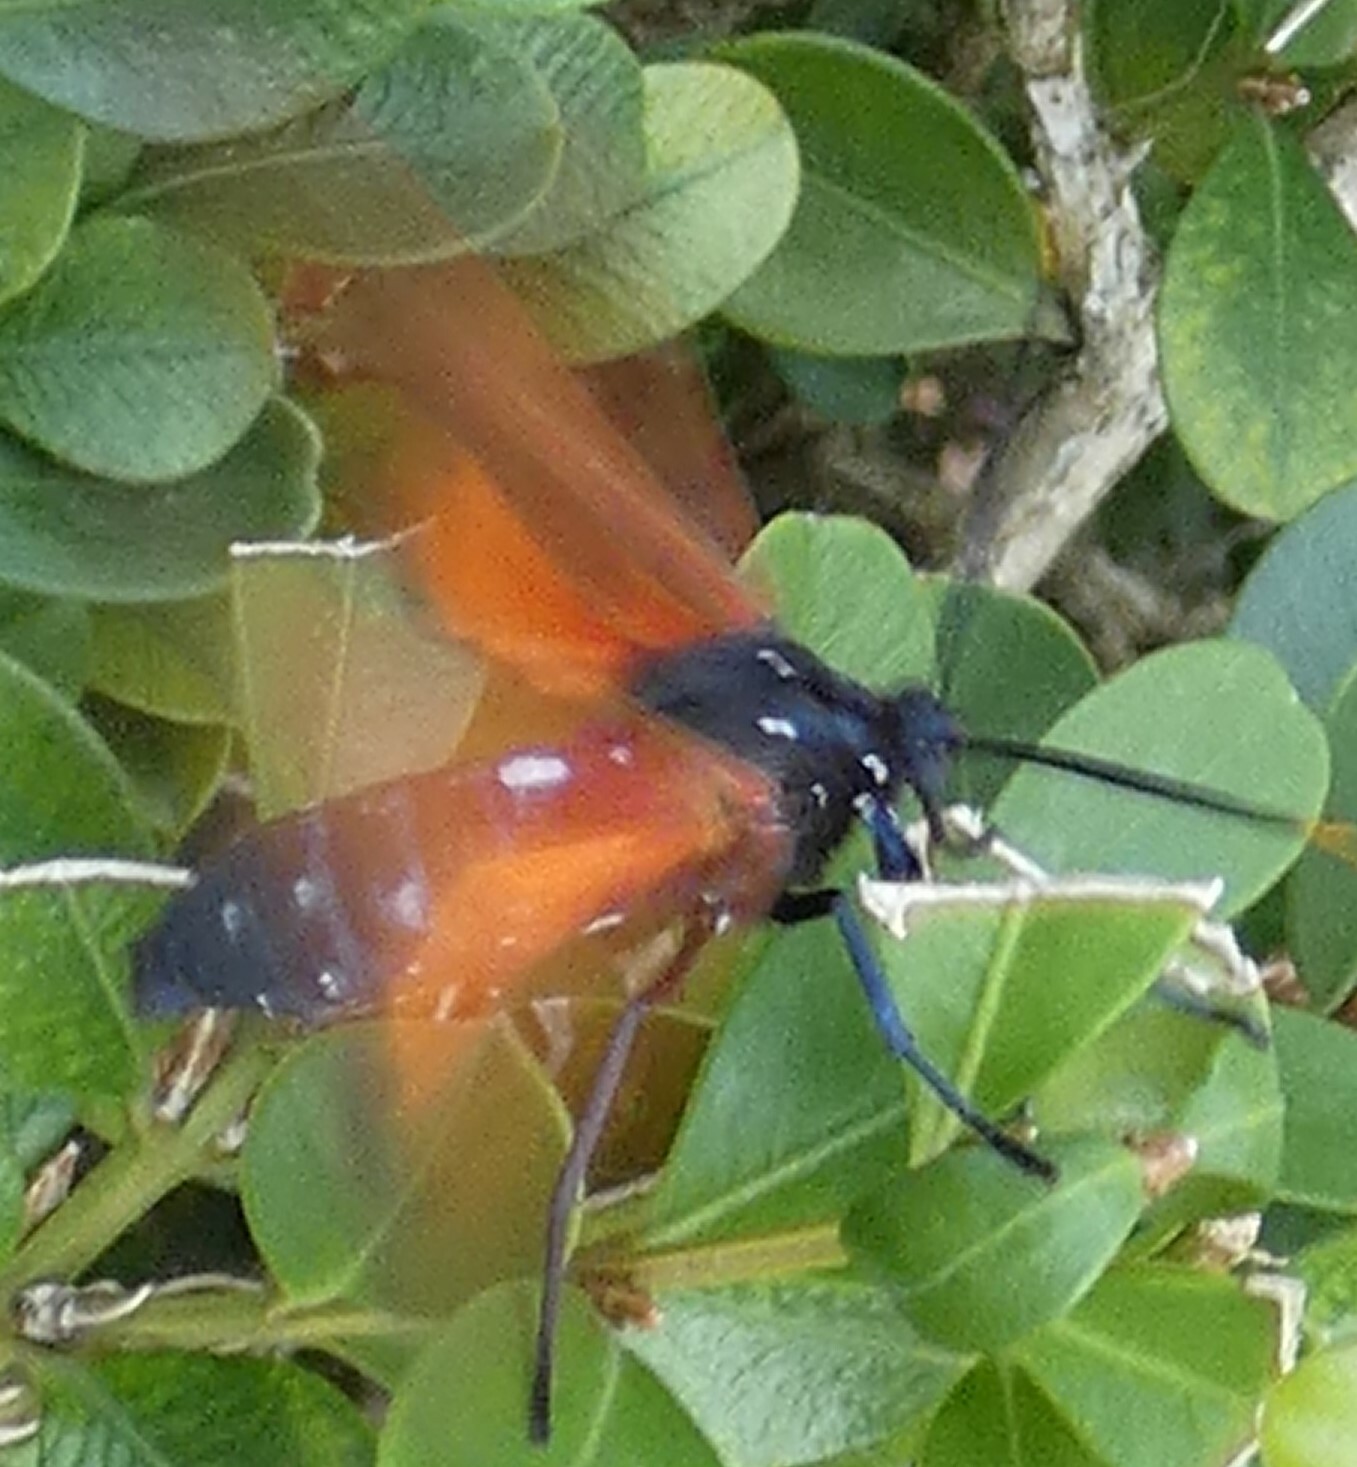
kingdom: Animalia
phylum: Arthropoda
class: Insecta
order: Lepidoptera
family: Erebidae
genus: Empyreuma
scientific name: Empyreuma pugione
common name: Spotted oleander caterpillar moth
